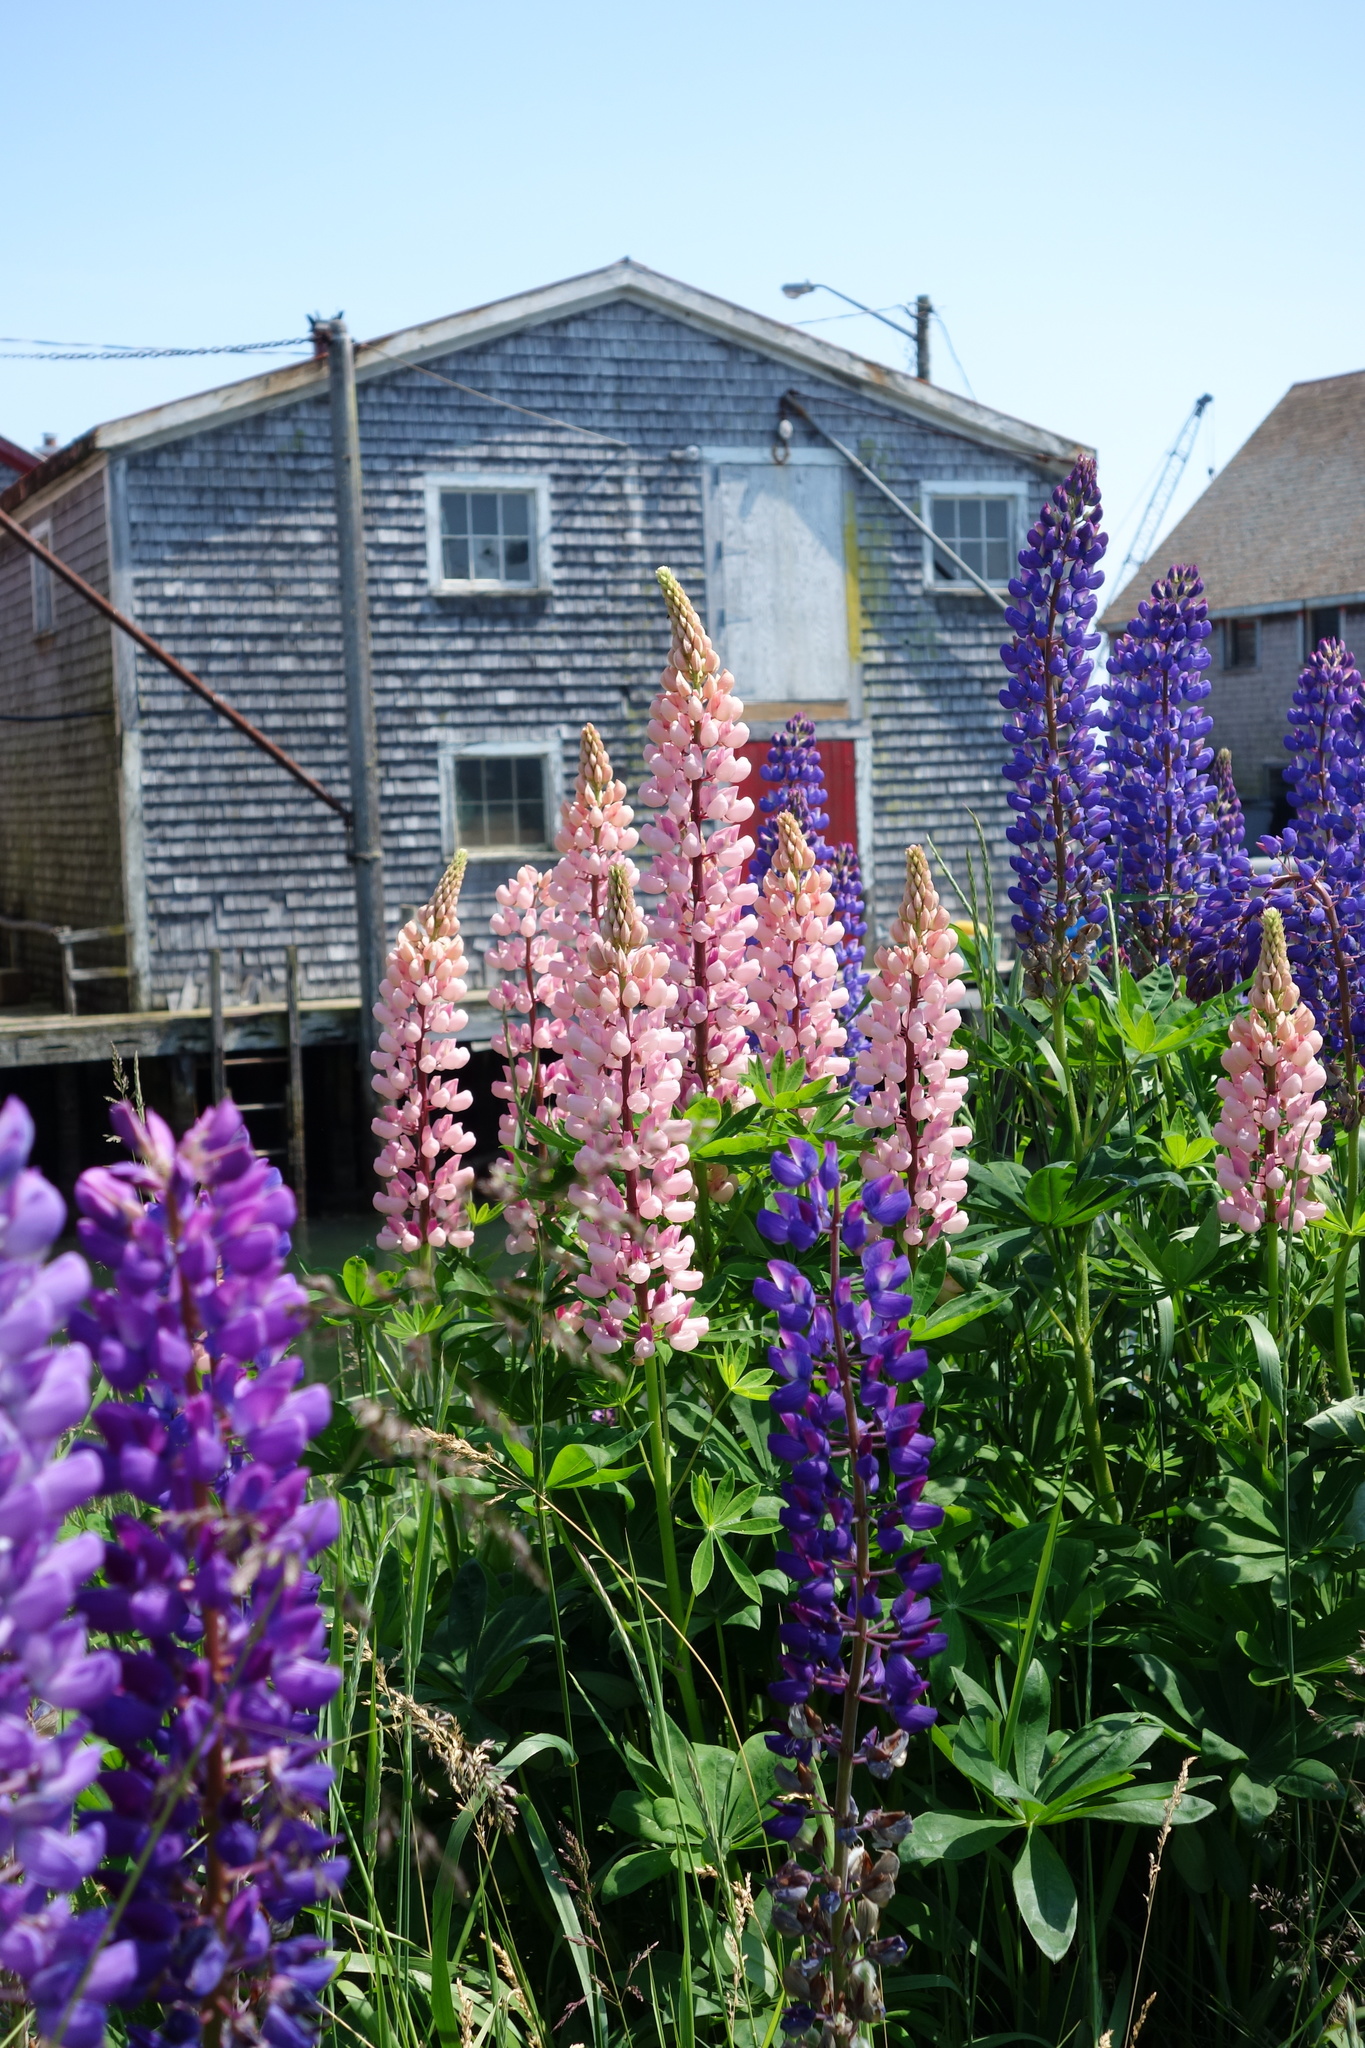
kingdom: Plantae
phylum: Tracheophyta
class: Magnoliopsida
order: Fabales
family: Fabaceae
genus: Lupinus
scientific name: Lupinus polyphyllus
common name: Garden lupin
